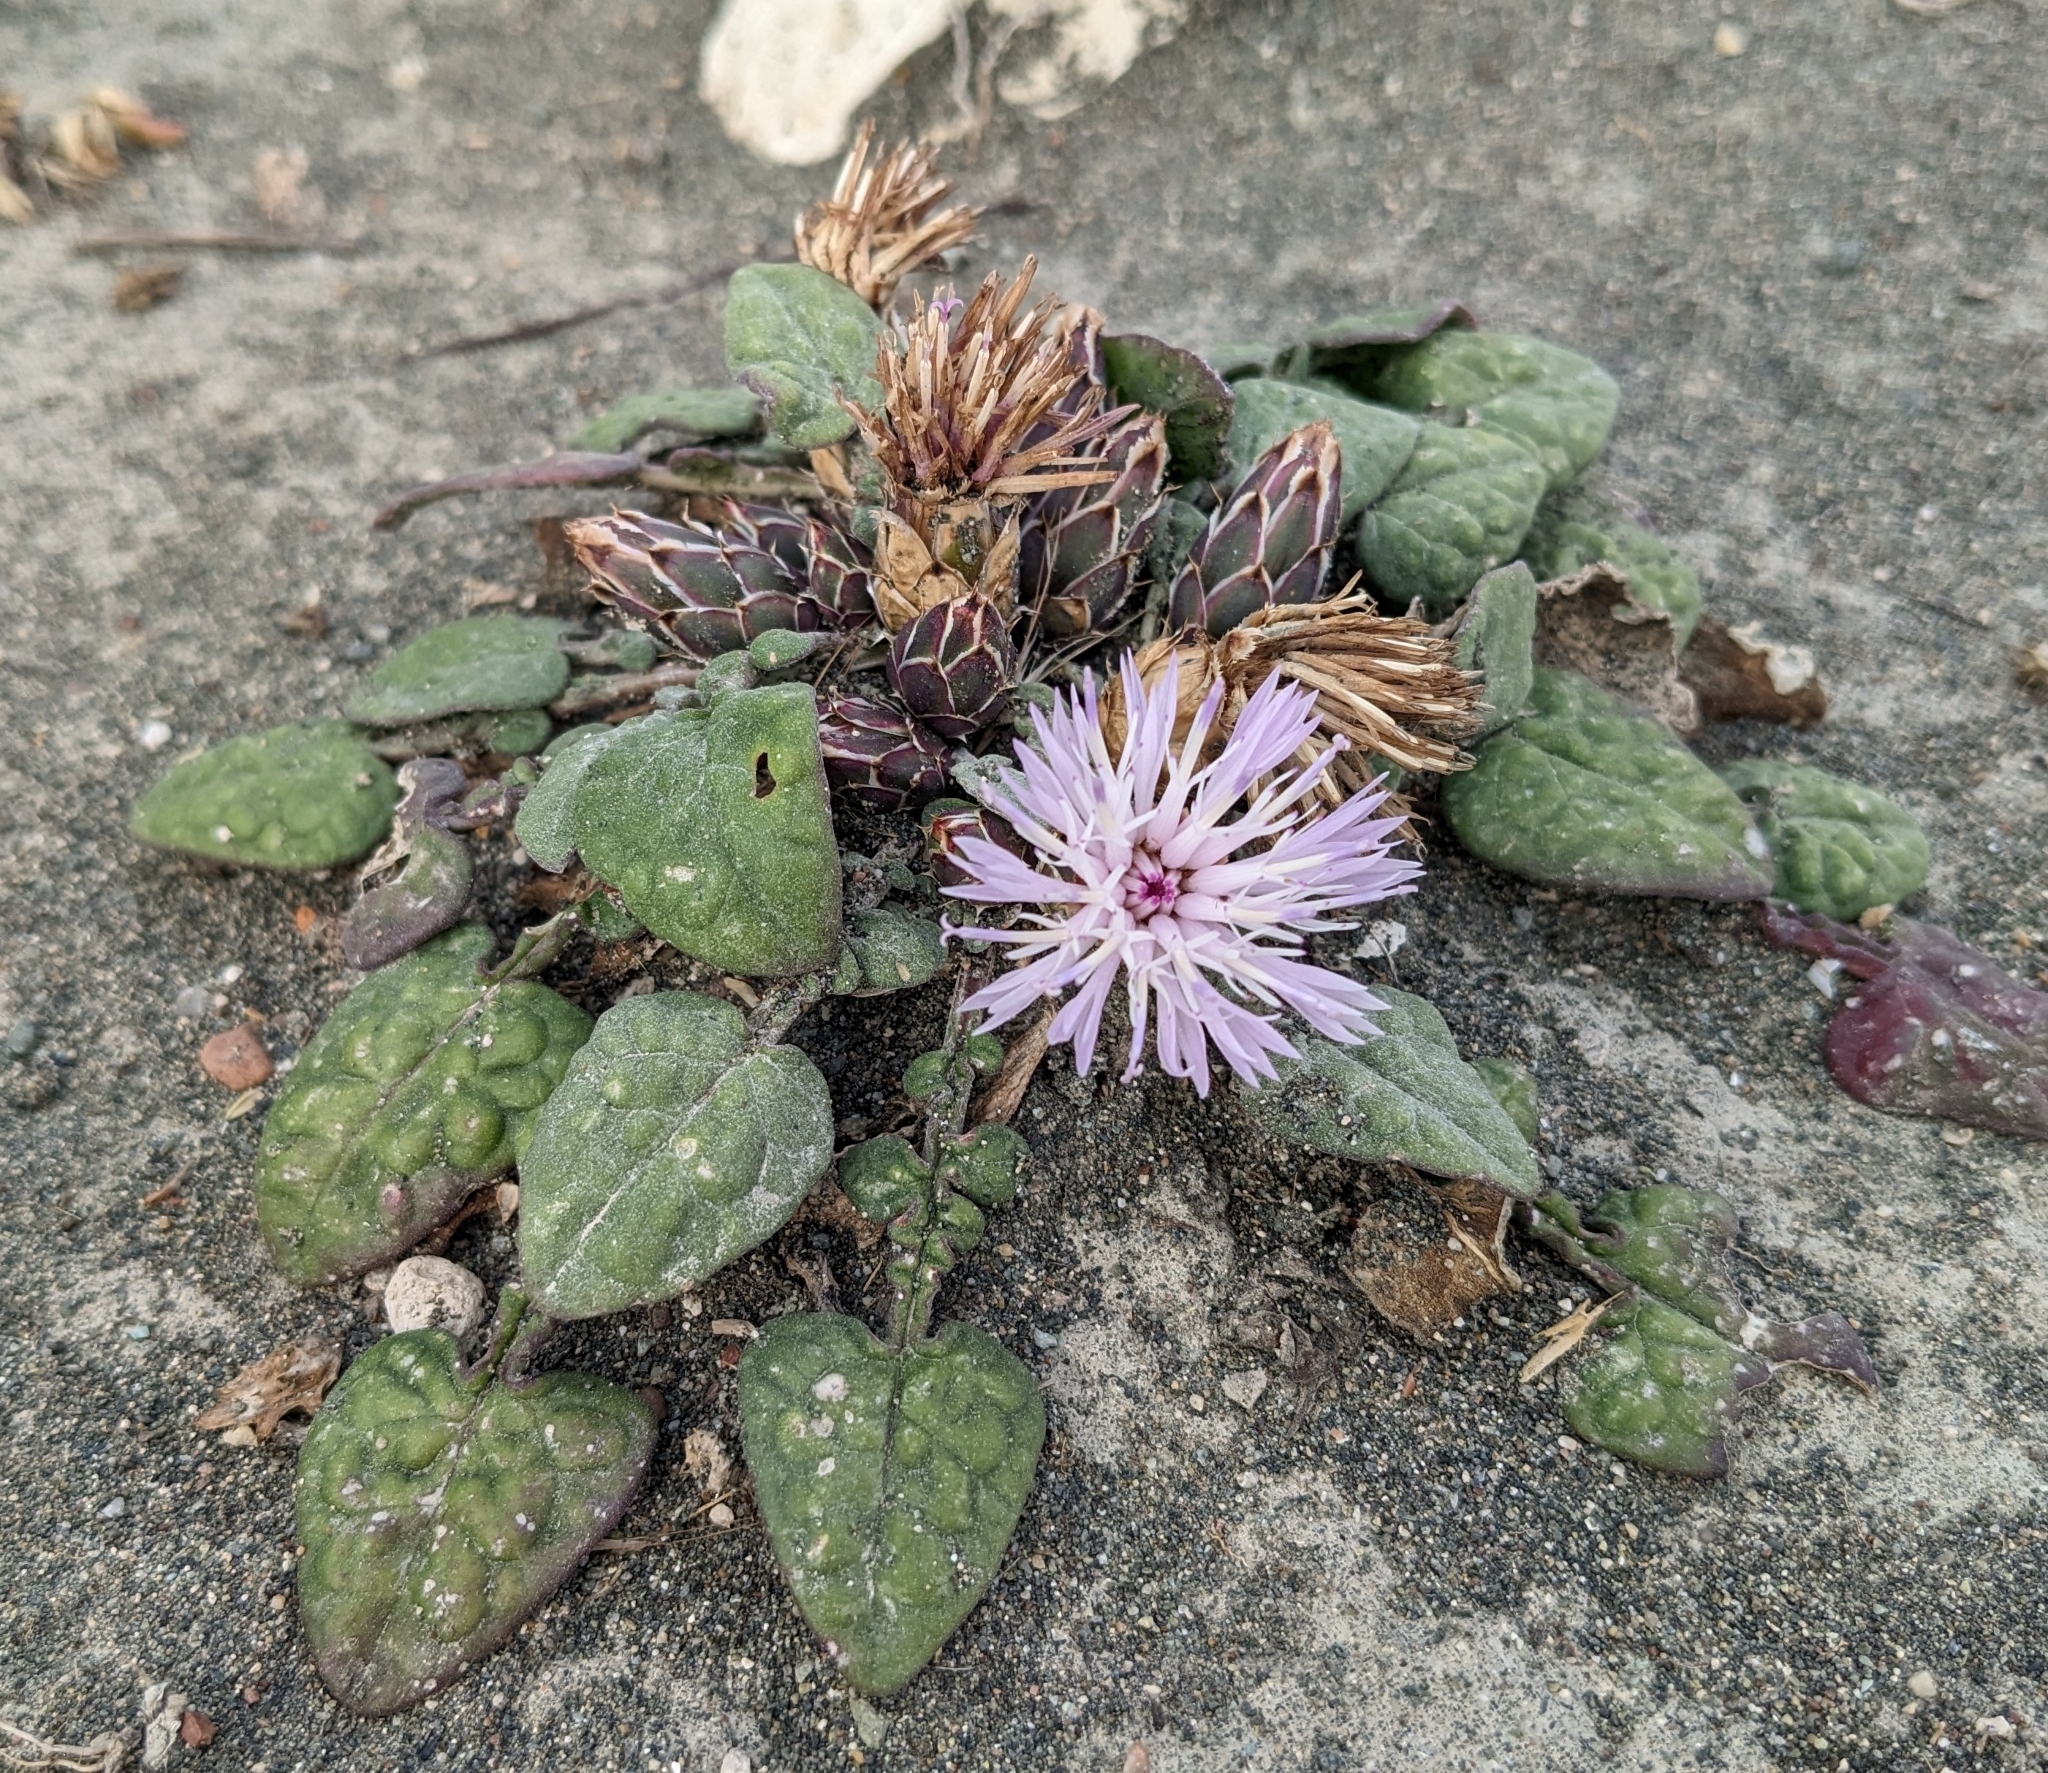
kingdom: Plantae
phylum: Tracheophyta
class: Magnoliopsida
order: Asterales
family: Asteraceae
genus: Crocodilium
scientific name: Crocodilium creticum
